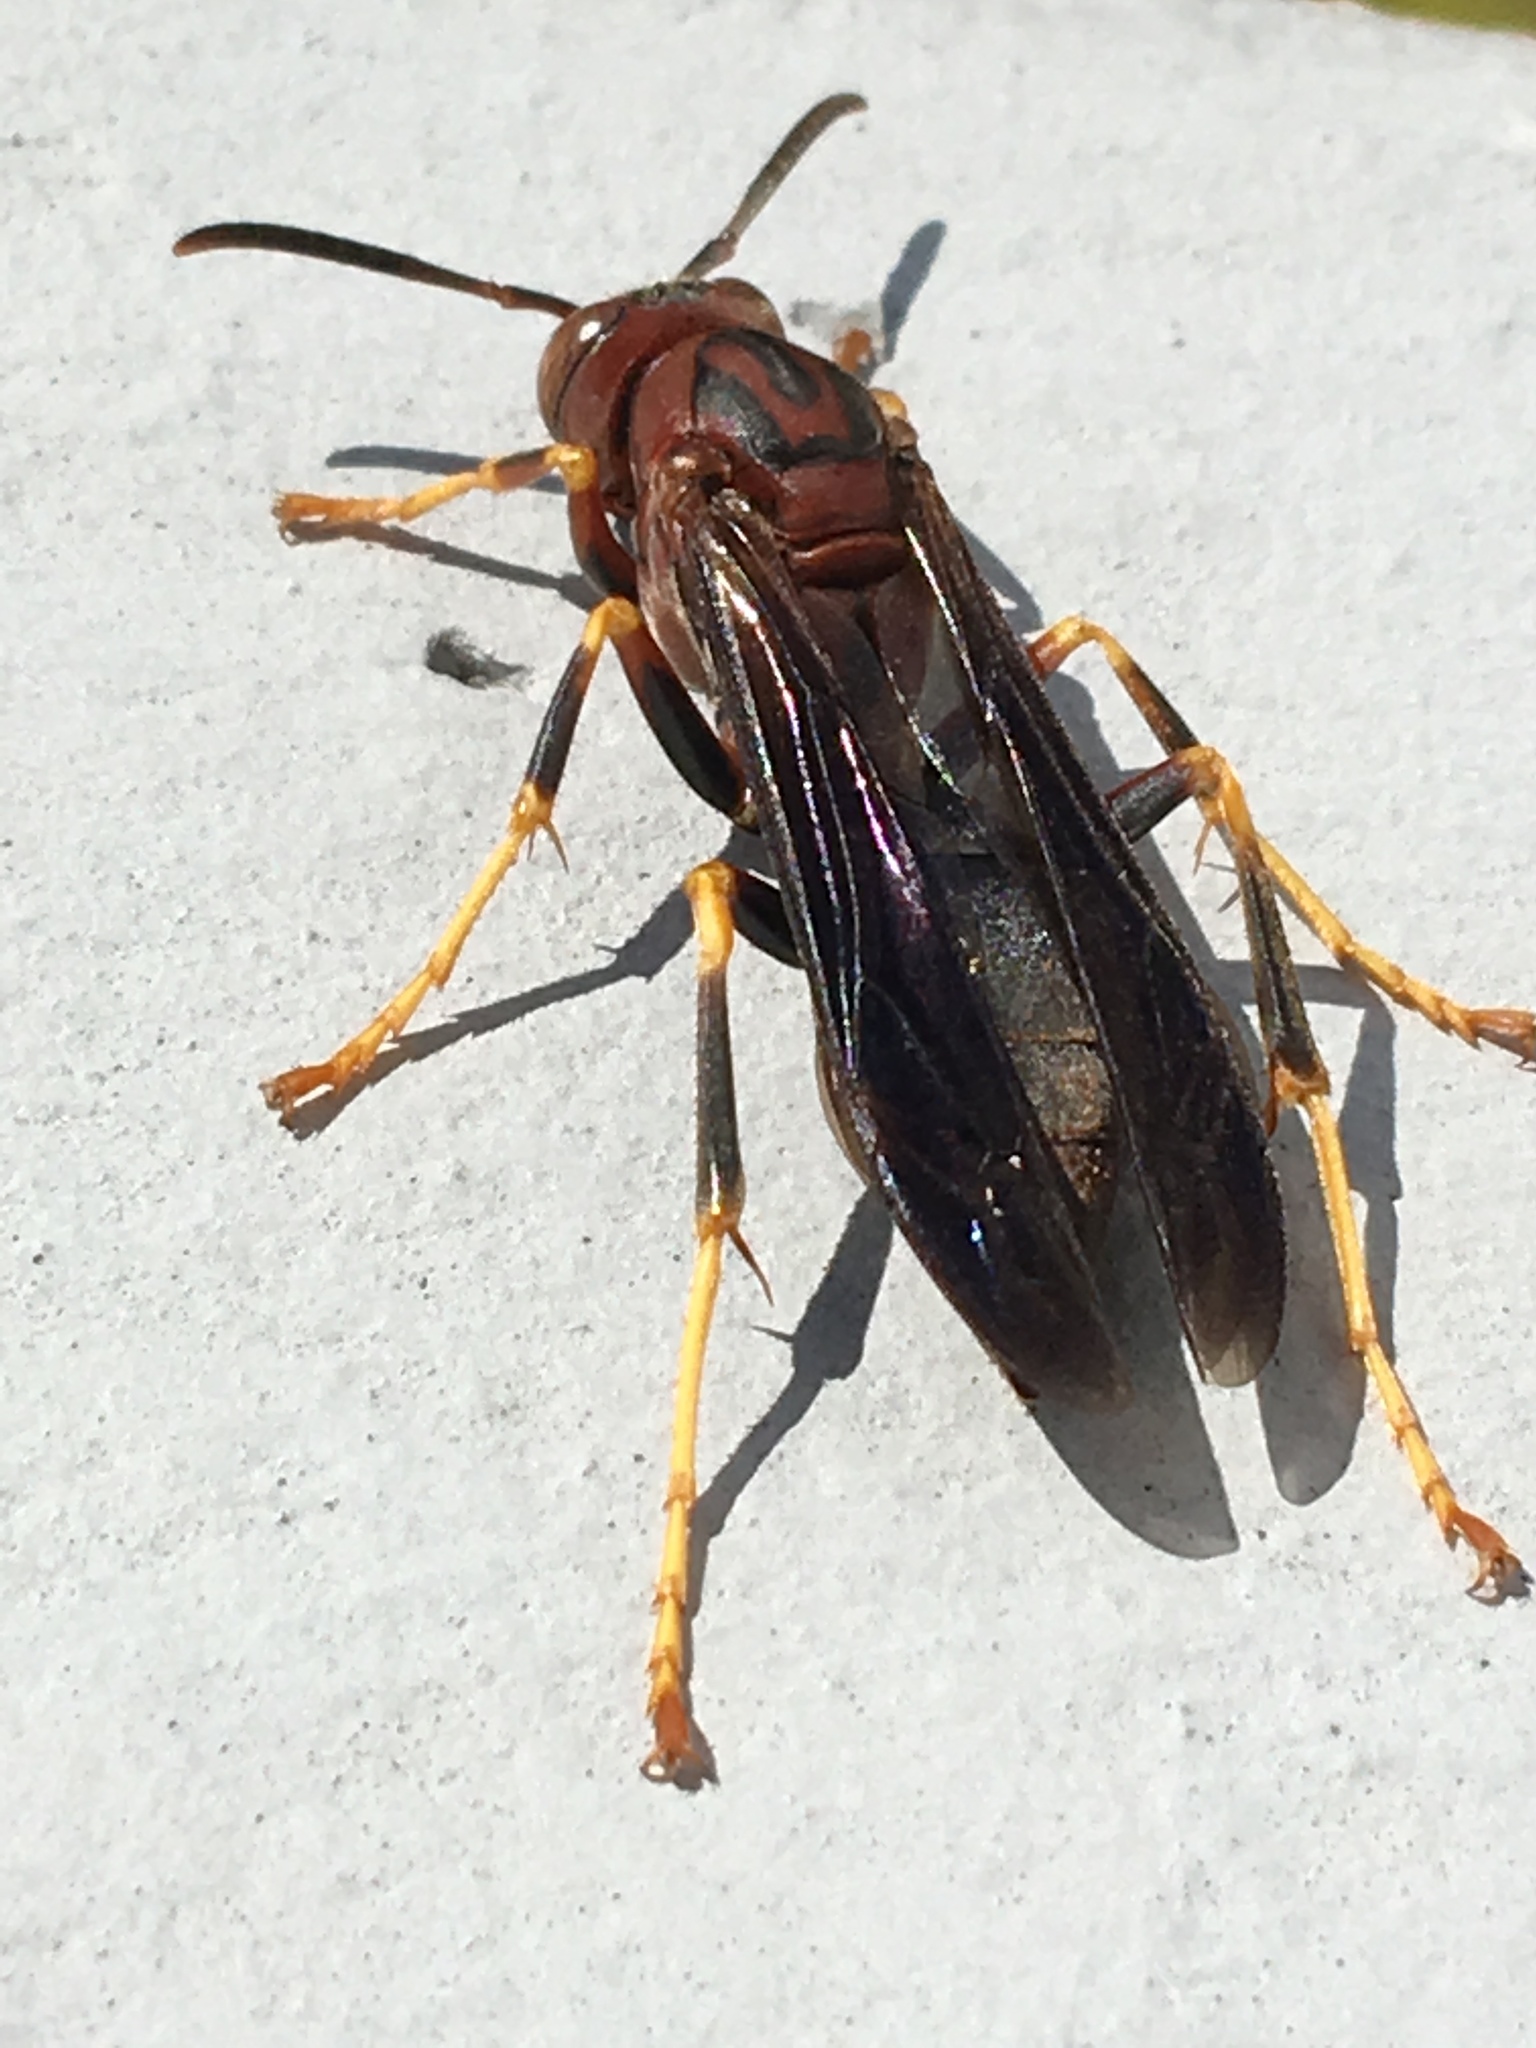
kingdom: Animalia
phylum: Arthropoda
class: Insecta
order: Hymenoptera
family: Eumenidae
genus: Polistes
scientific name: Polistes metricus
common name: Metric paper wasp
